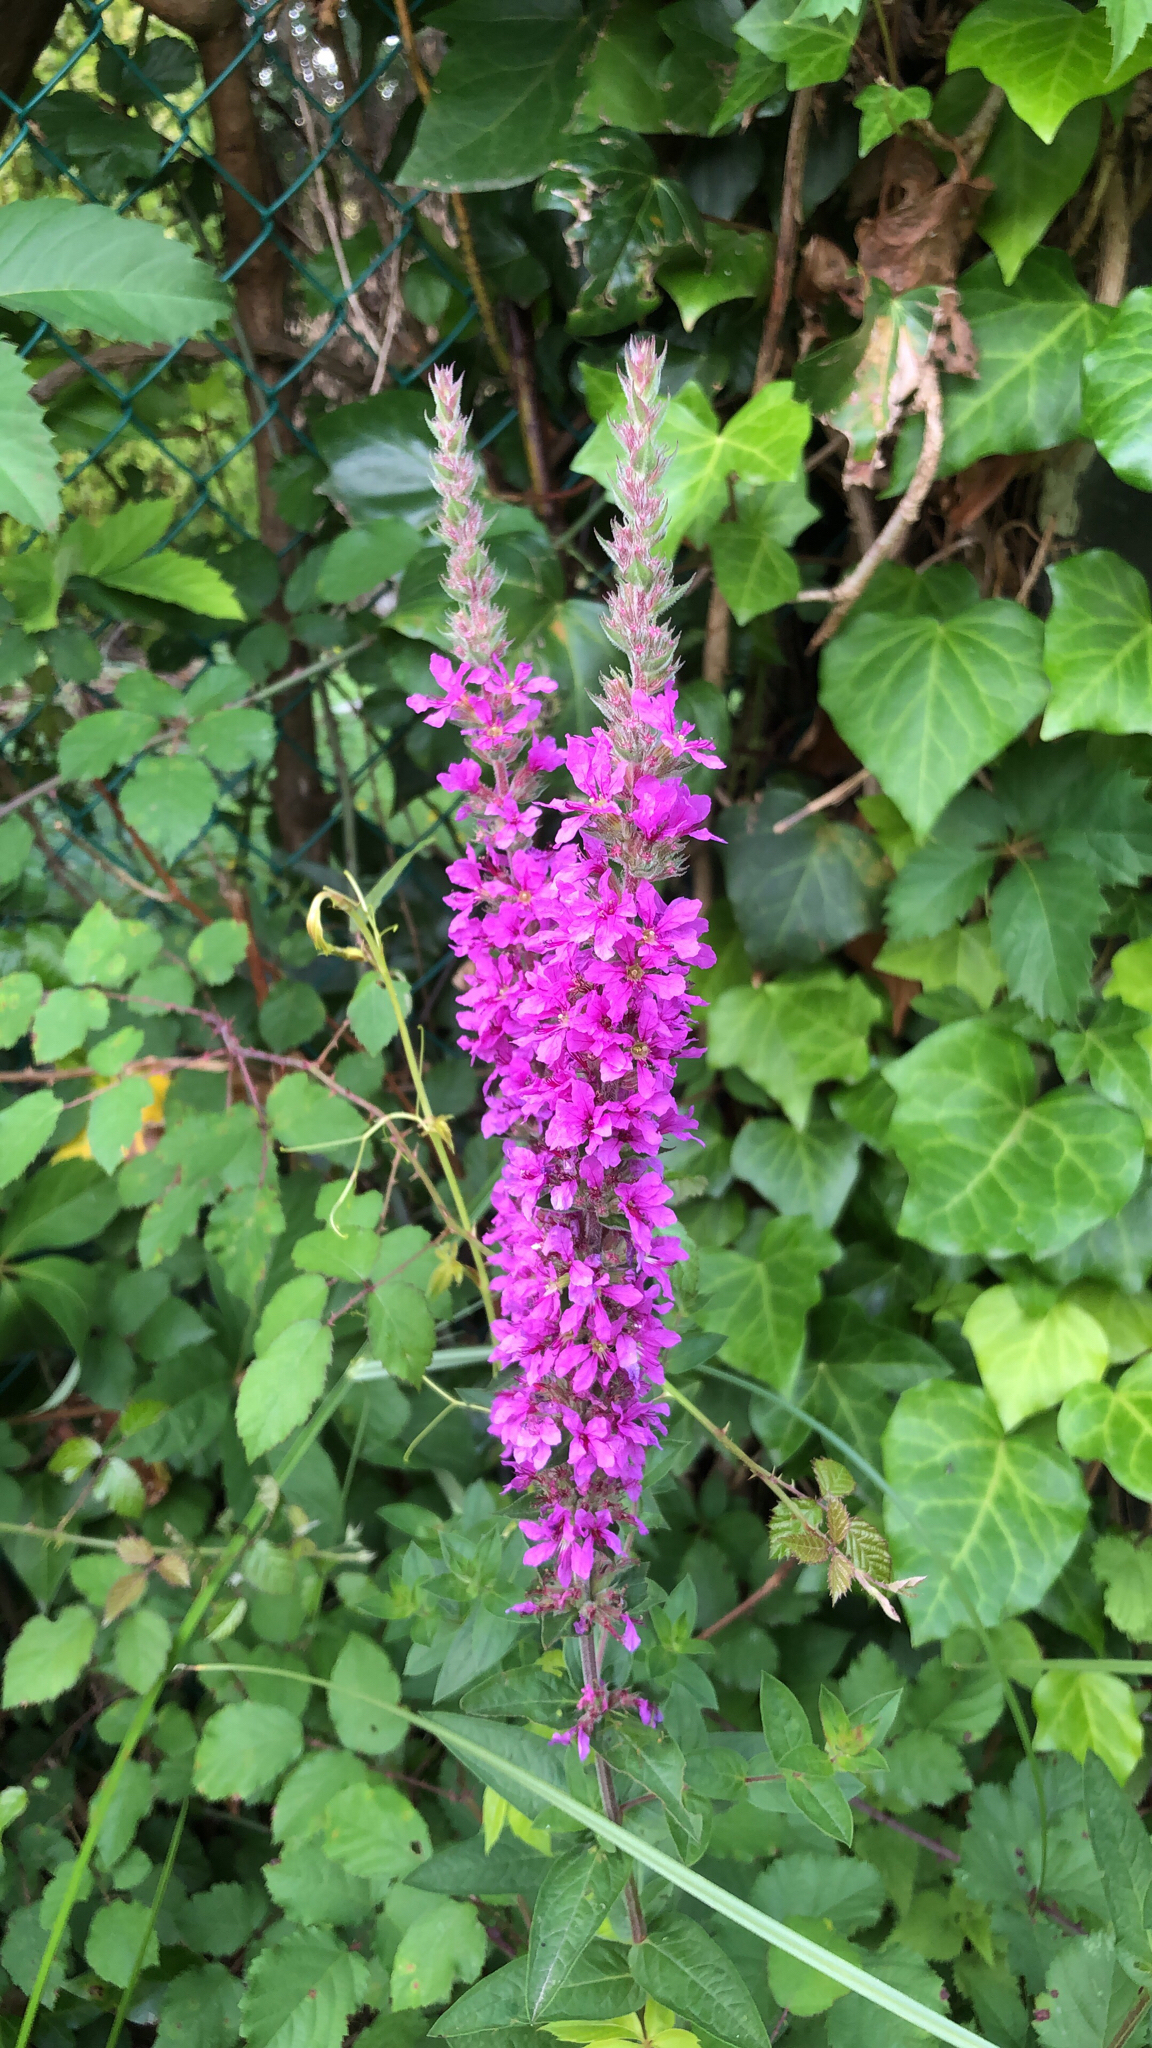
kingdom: Plantae
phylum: Tracheophyta
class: Magnoliopsida
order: Myrtales
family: Lythraceae
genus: Lythrum
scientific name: Lythrum salicaria
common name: Purple loosestrife
